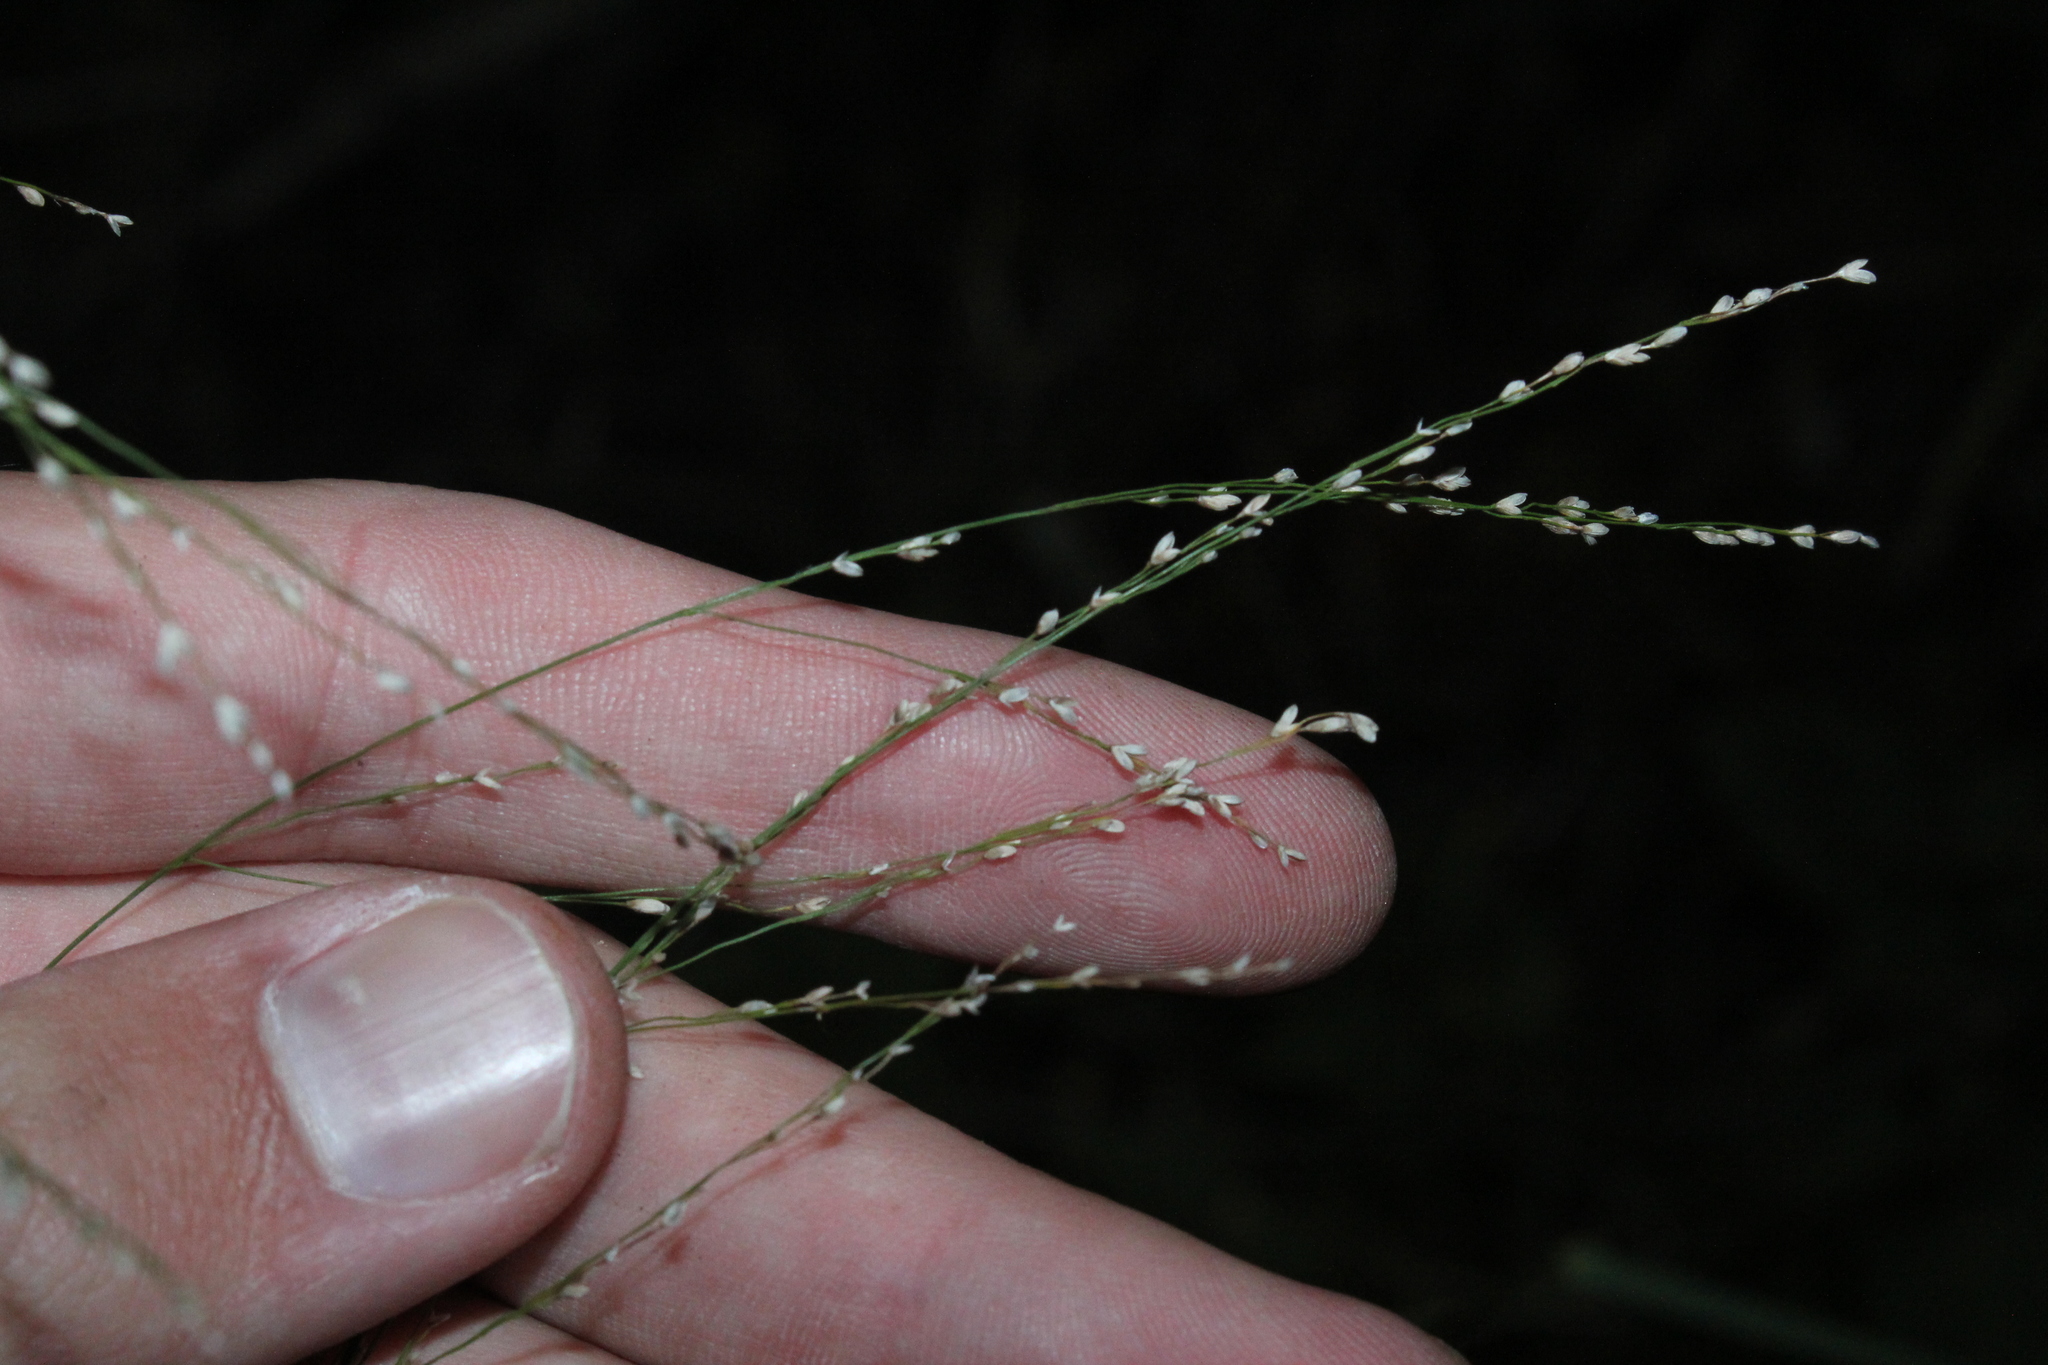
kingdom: Plantae
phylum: Tracheophyta
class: Liliopsida
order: Poales
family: Poaceae
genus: Glyceria
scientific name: Glyceria striata
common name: Fowl manna grass
